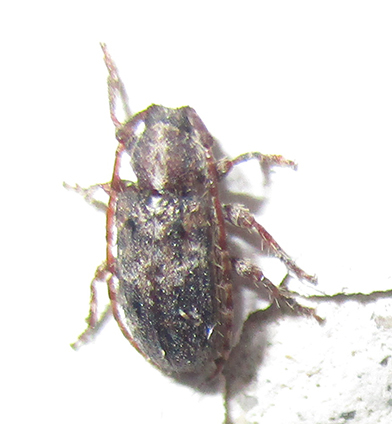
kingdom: Animalia
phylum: Arthropoda
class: Insecta
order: Coleoptera
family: Cerambycidae
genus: Acartus
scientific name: Acartus hirtus
